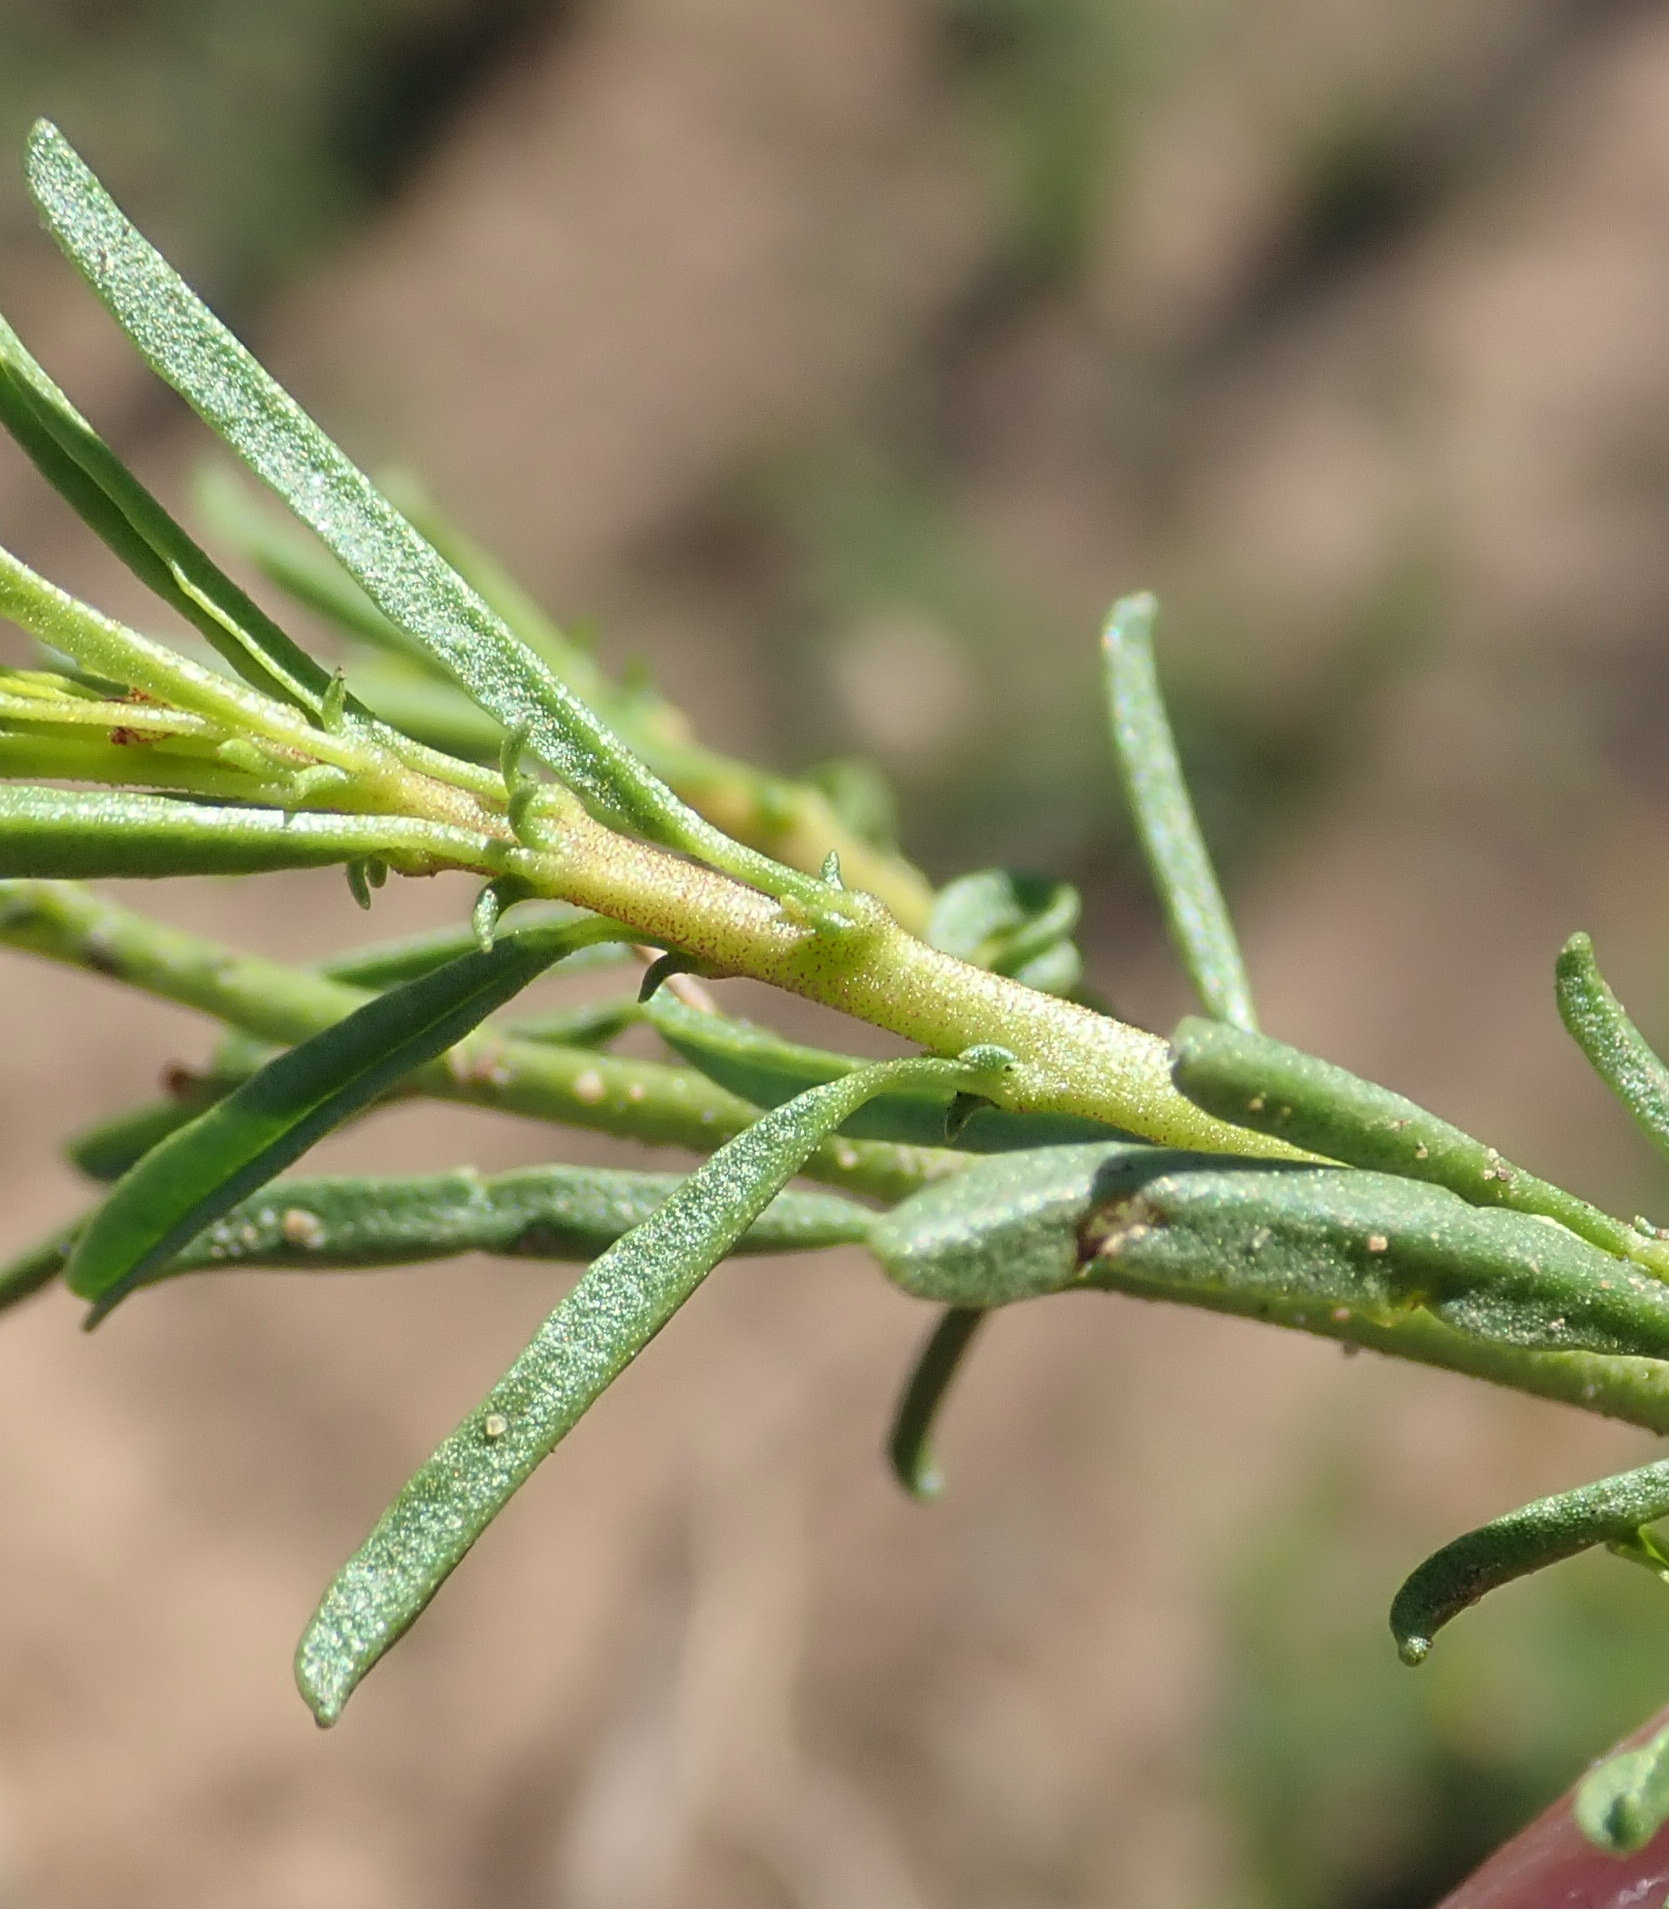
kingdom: Plantae
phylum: Tracheophyta
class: Magnoliopsida
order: Malvales
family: Malvaceae
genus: Hermannia
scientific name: Hermannia linearifolia
